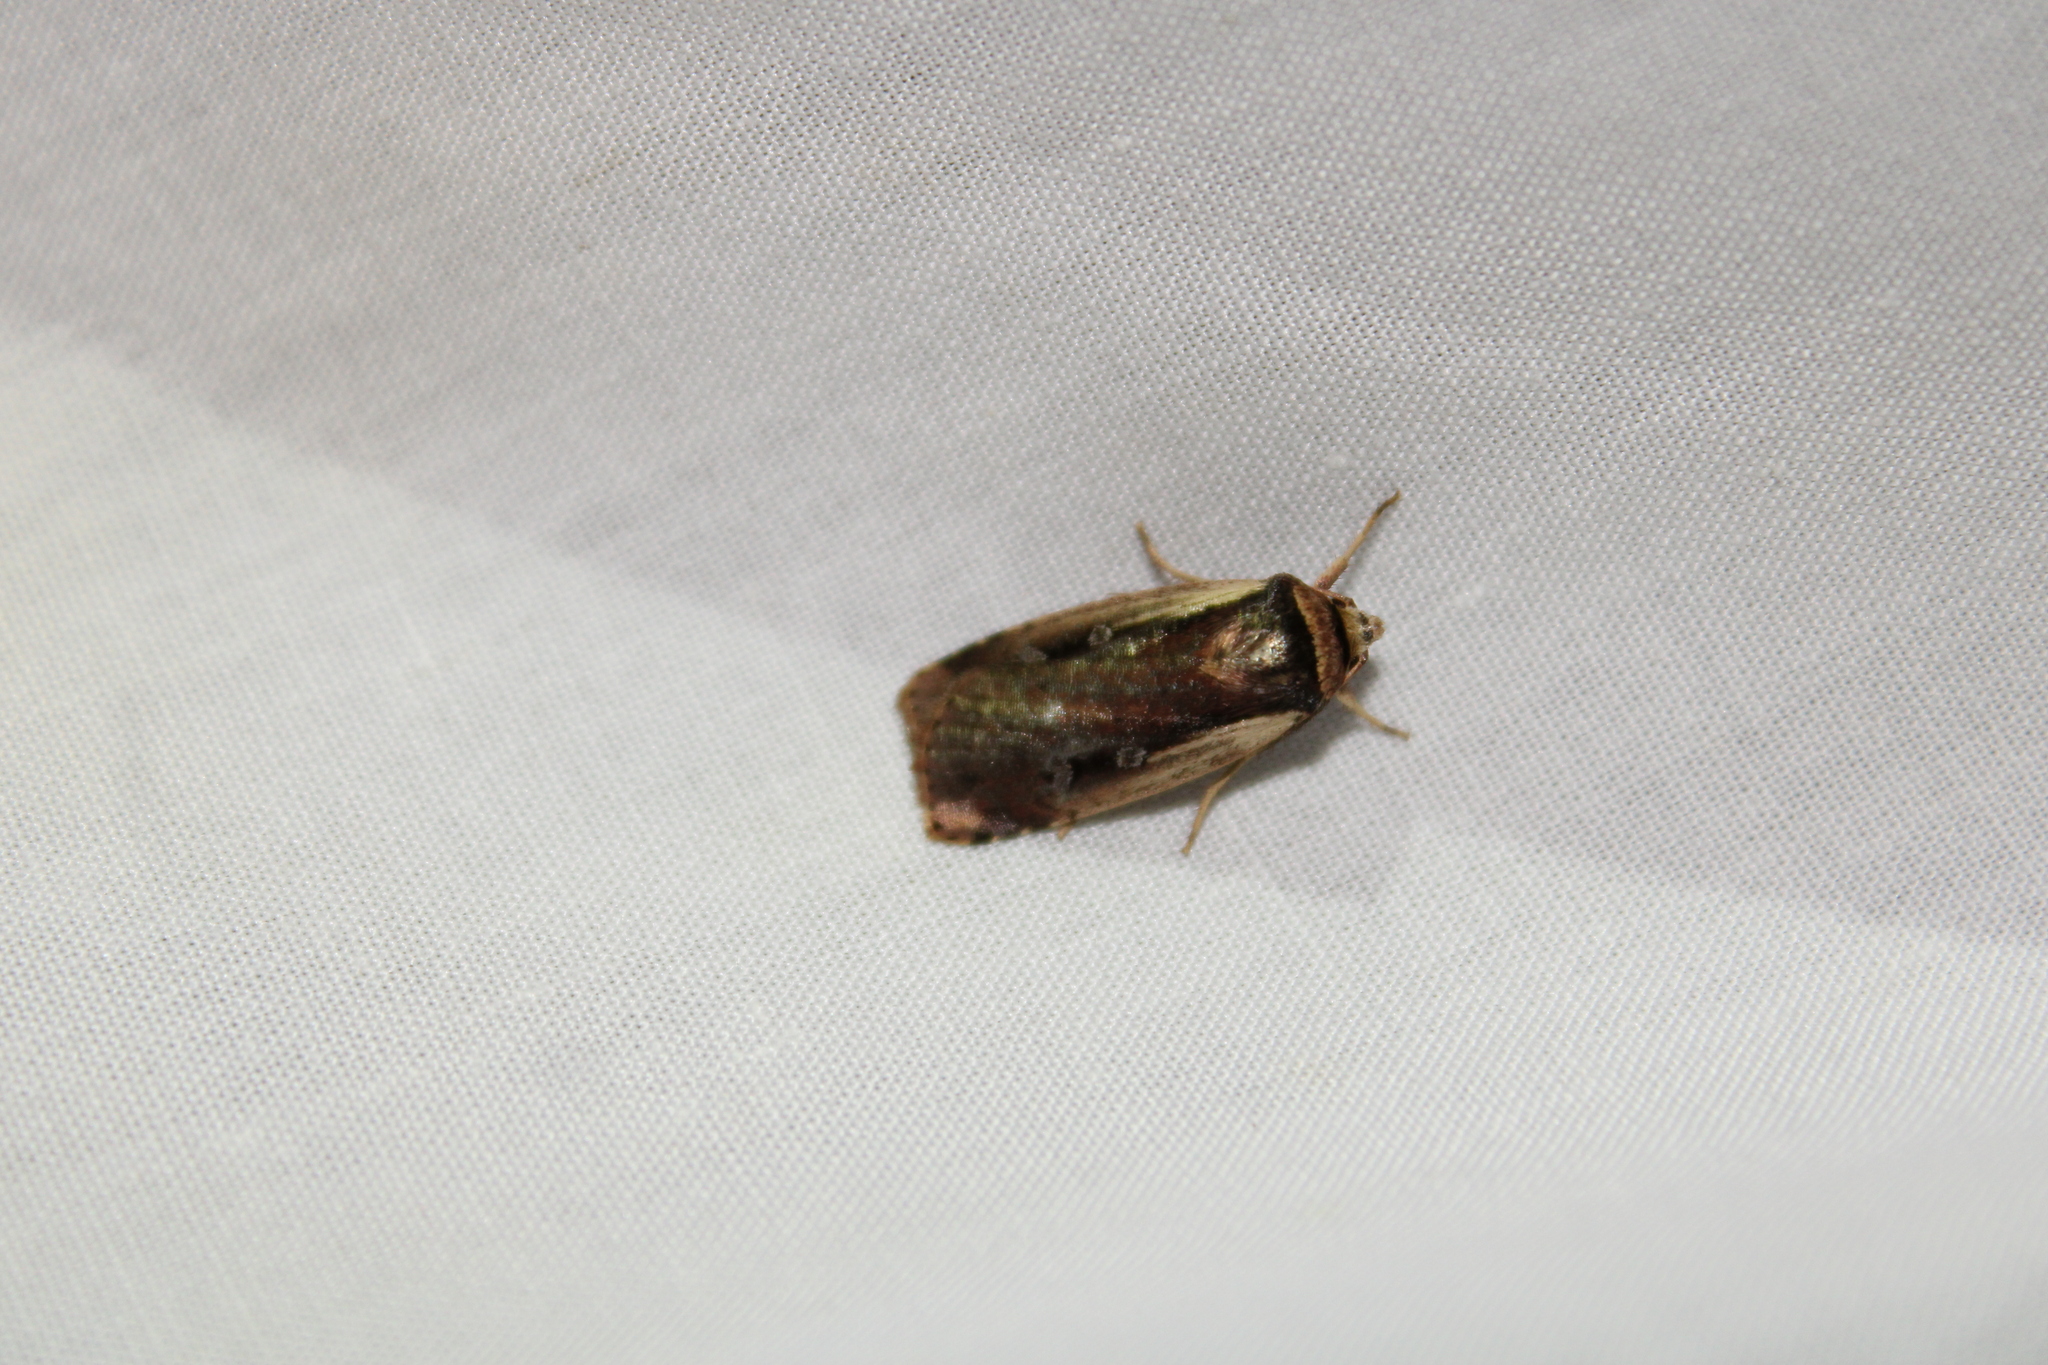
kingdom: Animalia
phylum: Arthropoda
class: Insecta
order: Lepidoptera
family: Noctuidae
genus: Ochropleura
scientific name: Ochropleura implecta
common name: Flame-shouldered dart
